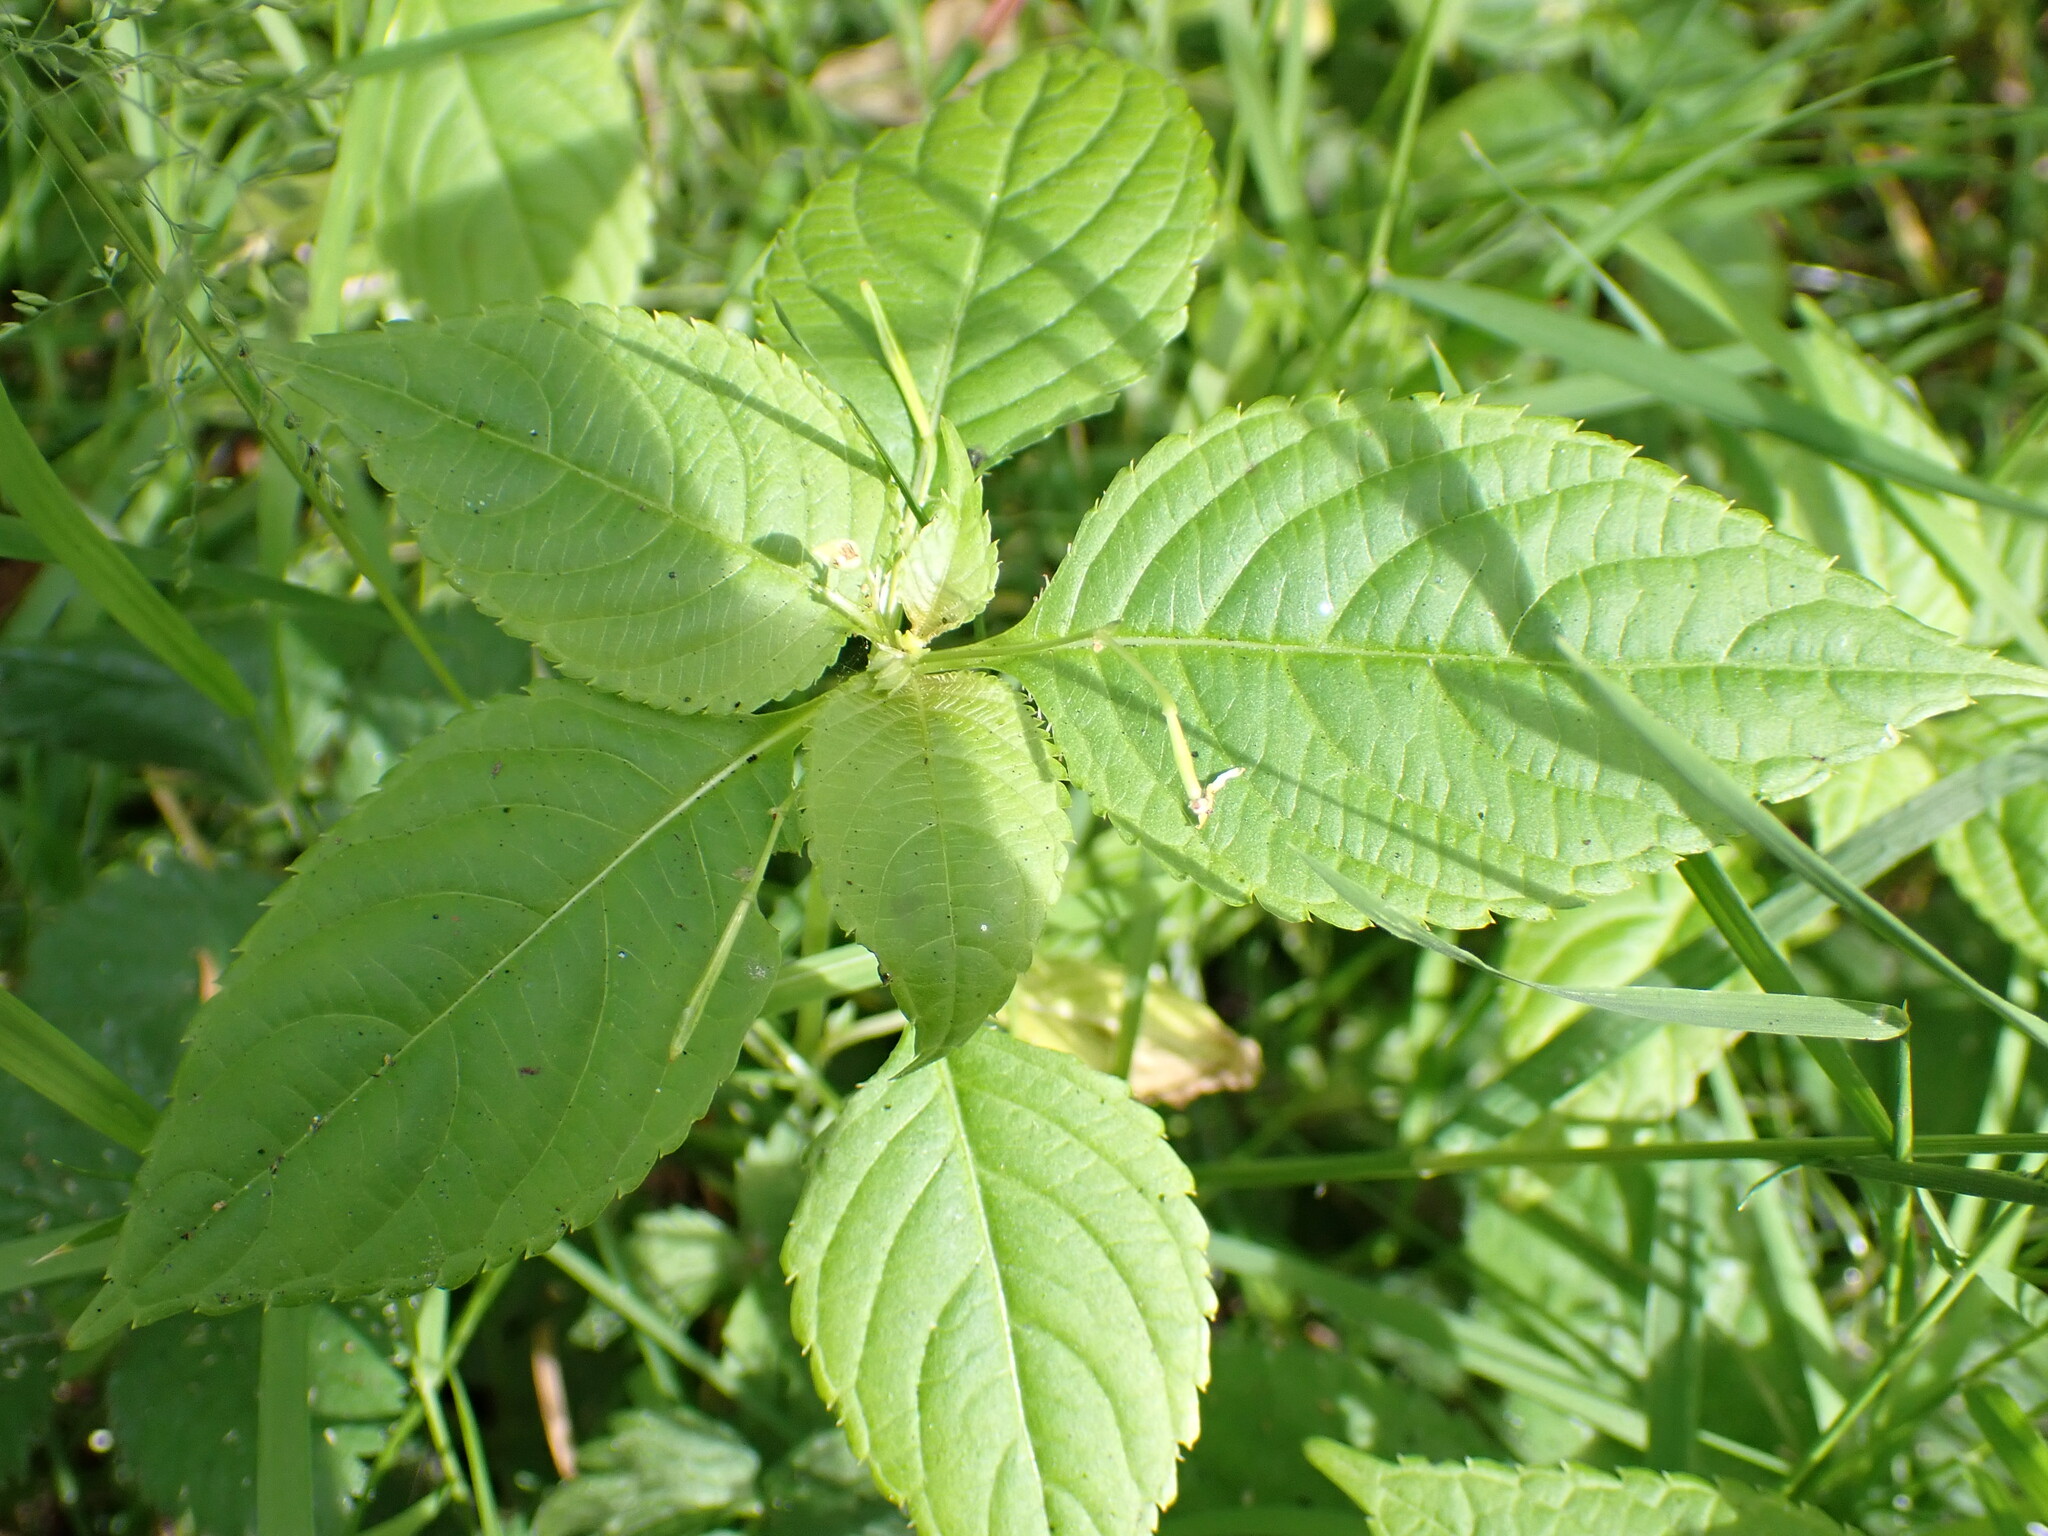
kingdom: Plantae
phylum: Tracheophyta
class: Magnoliopsida
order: Ericales
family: Balsaminaceae
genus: Impatiens
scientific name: Impatiens parviflora
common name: Small balsam
